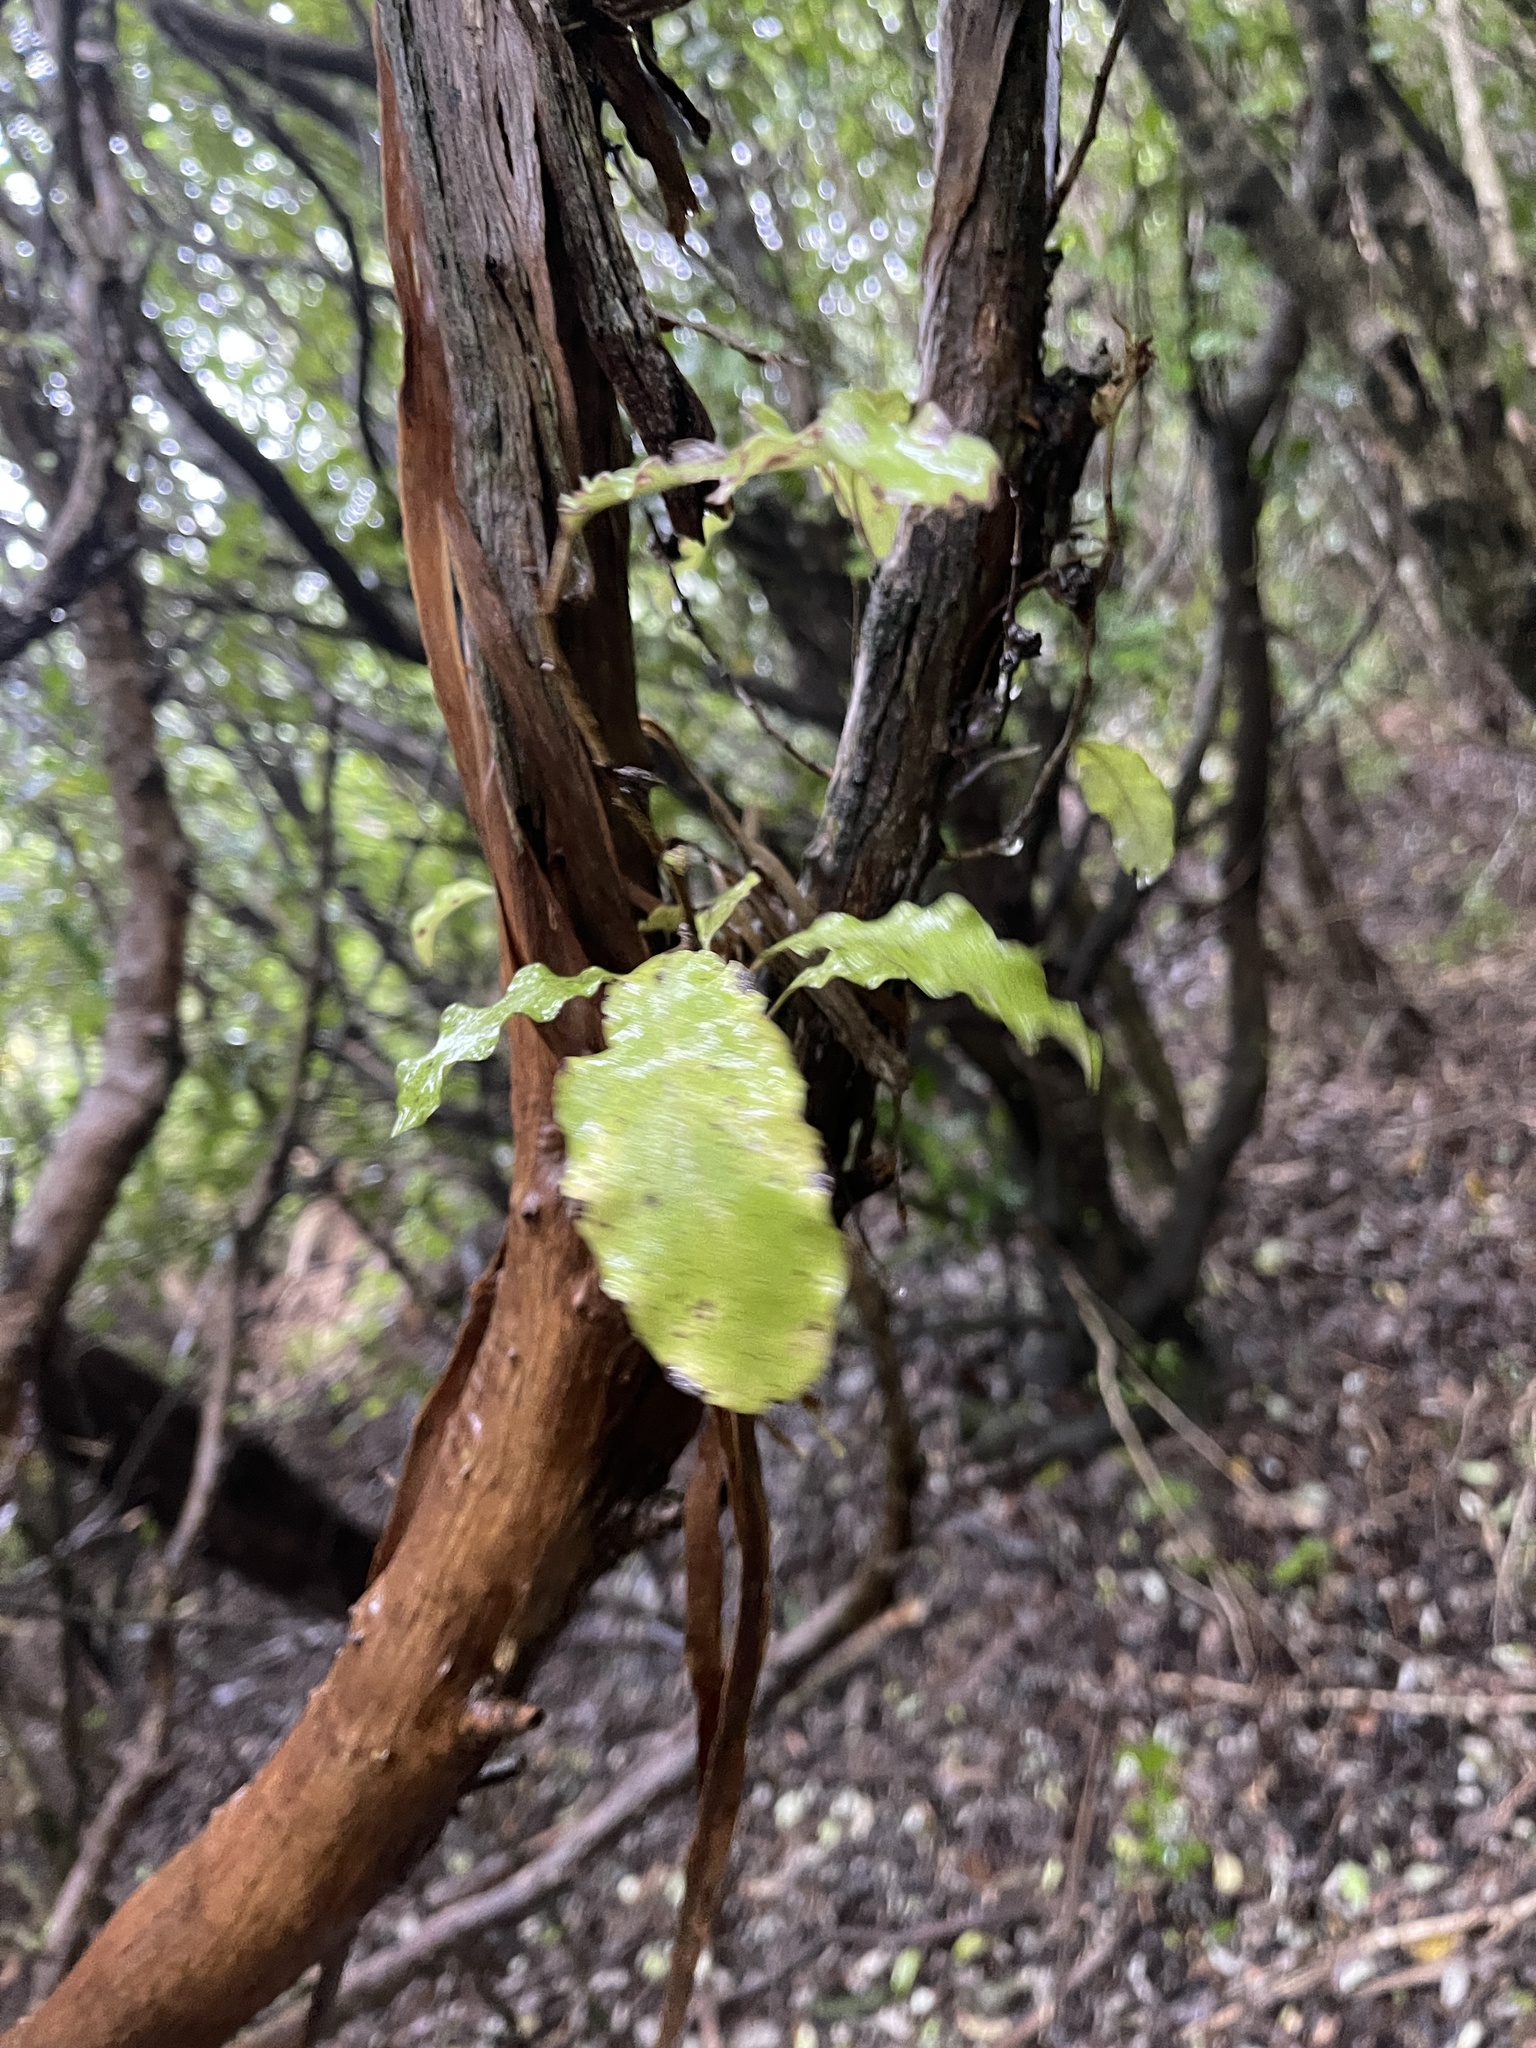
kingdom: Plantae
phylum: Tracheophyta
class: Magnoliopsida
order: Asterales
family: Asteraceae
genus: Olearia
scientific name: Olearia paniculata
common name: Akiraho
